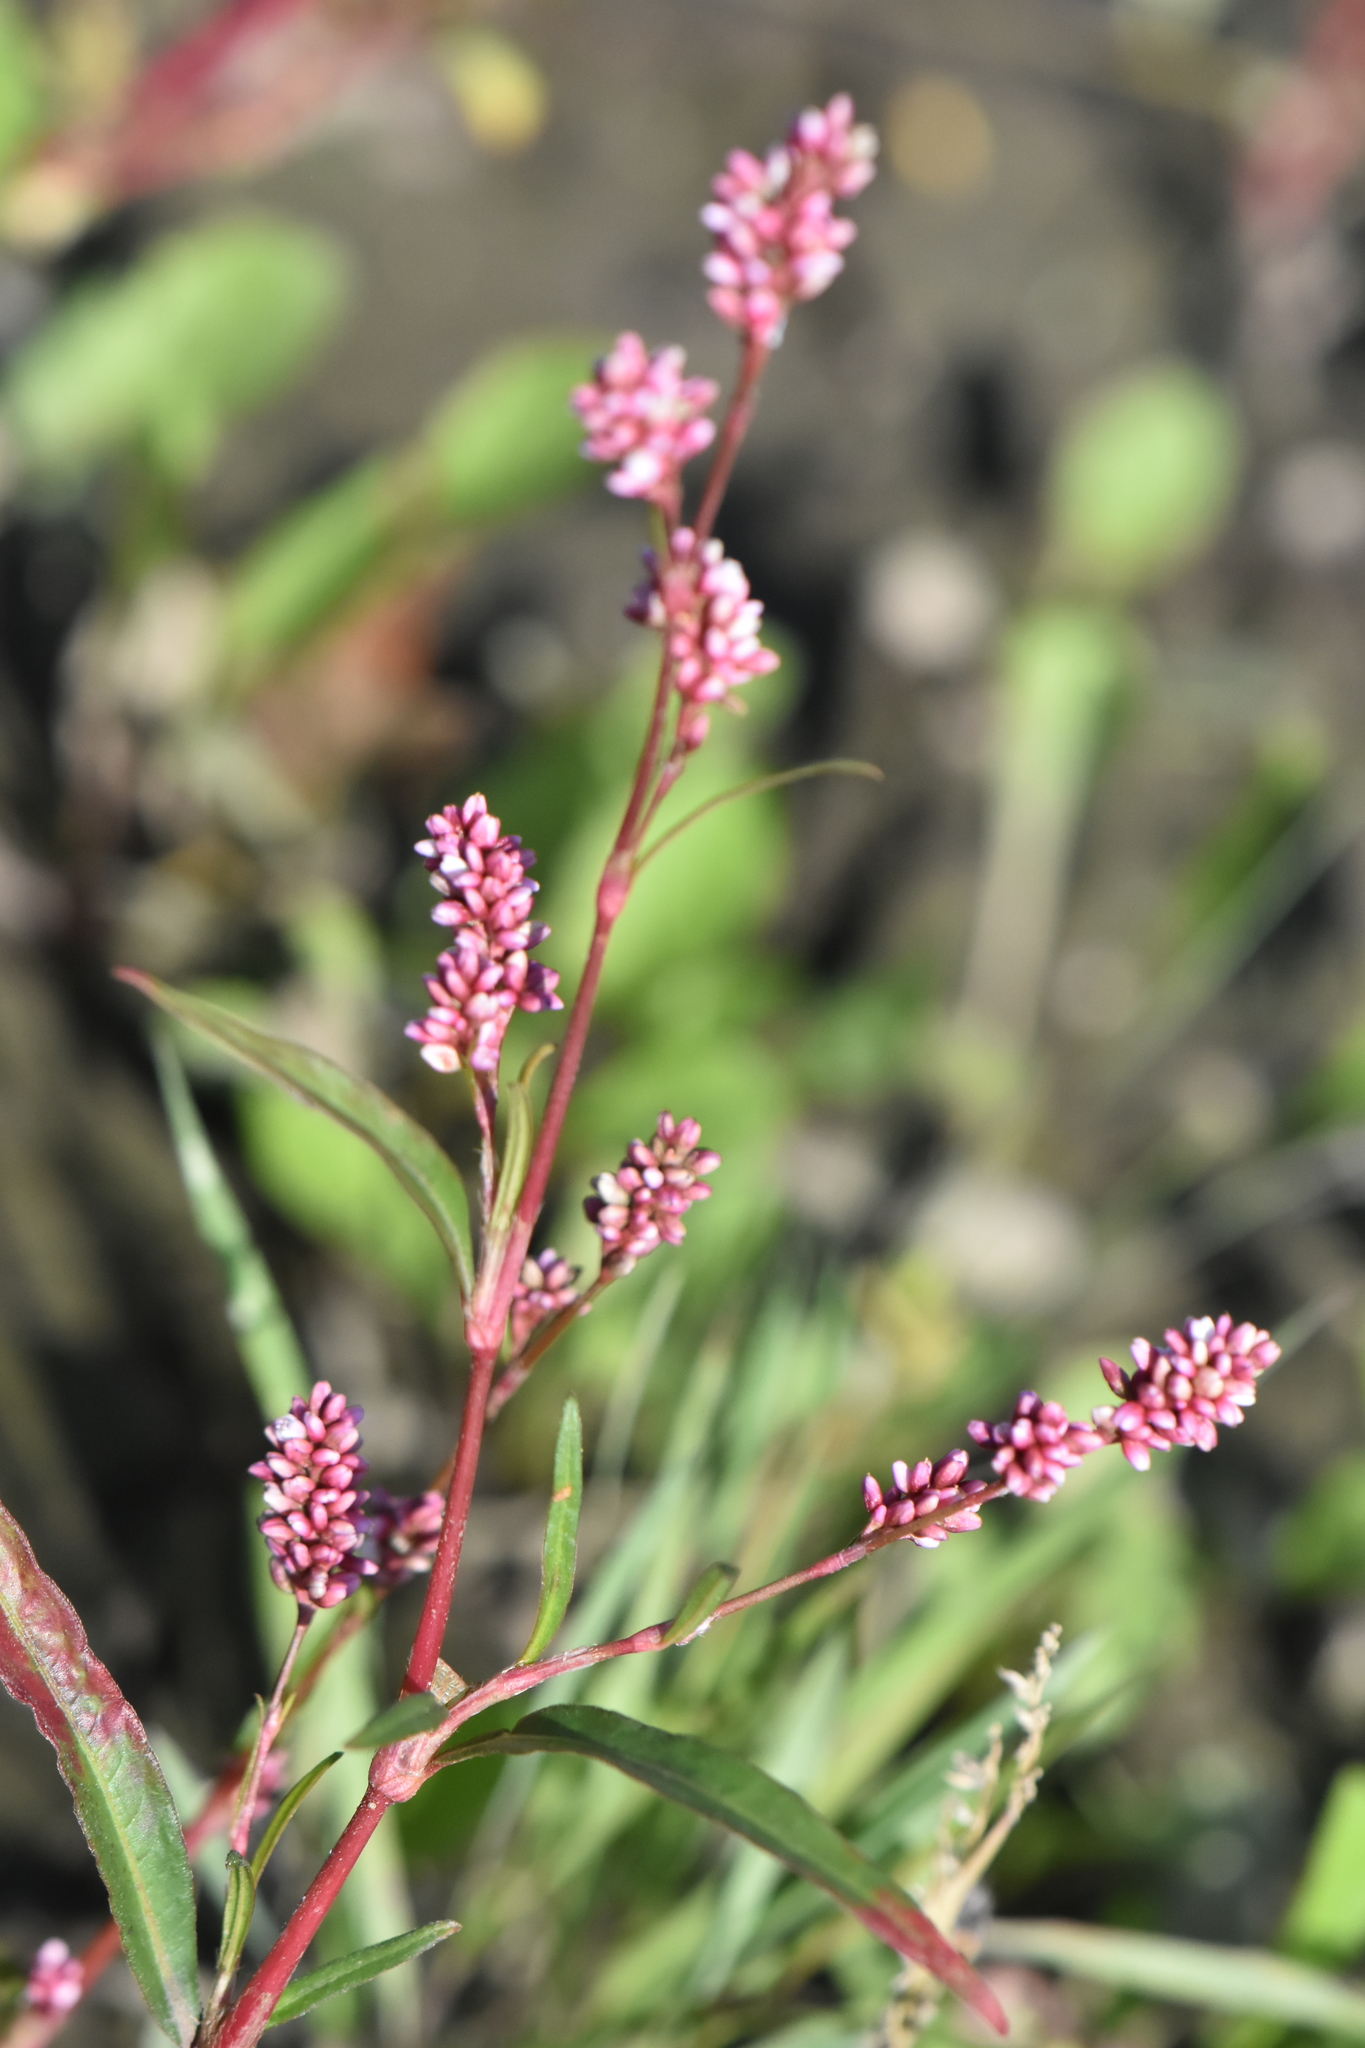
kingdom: Plantae
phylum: Tracheophyta
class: Magnoliopsida
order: Caryophyllales
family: Polygonaceae
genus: Persicaria
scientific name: Persicaria maculosa
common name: Redshank
